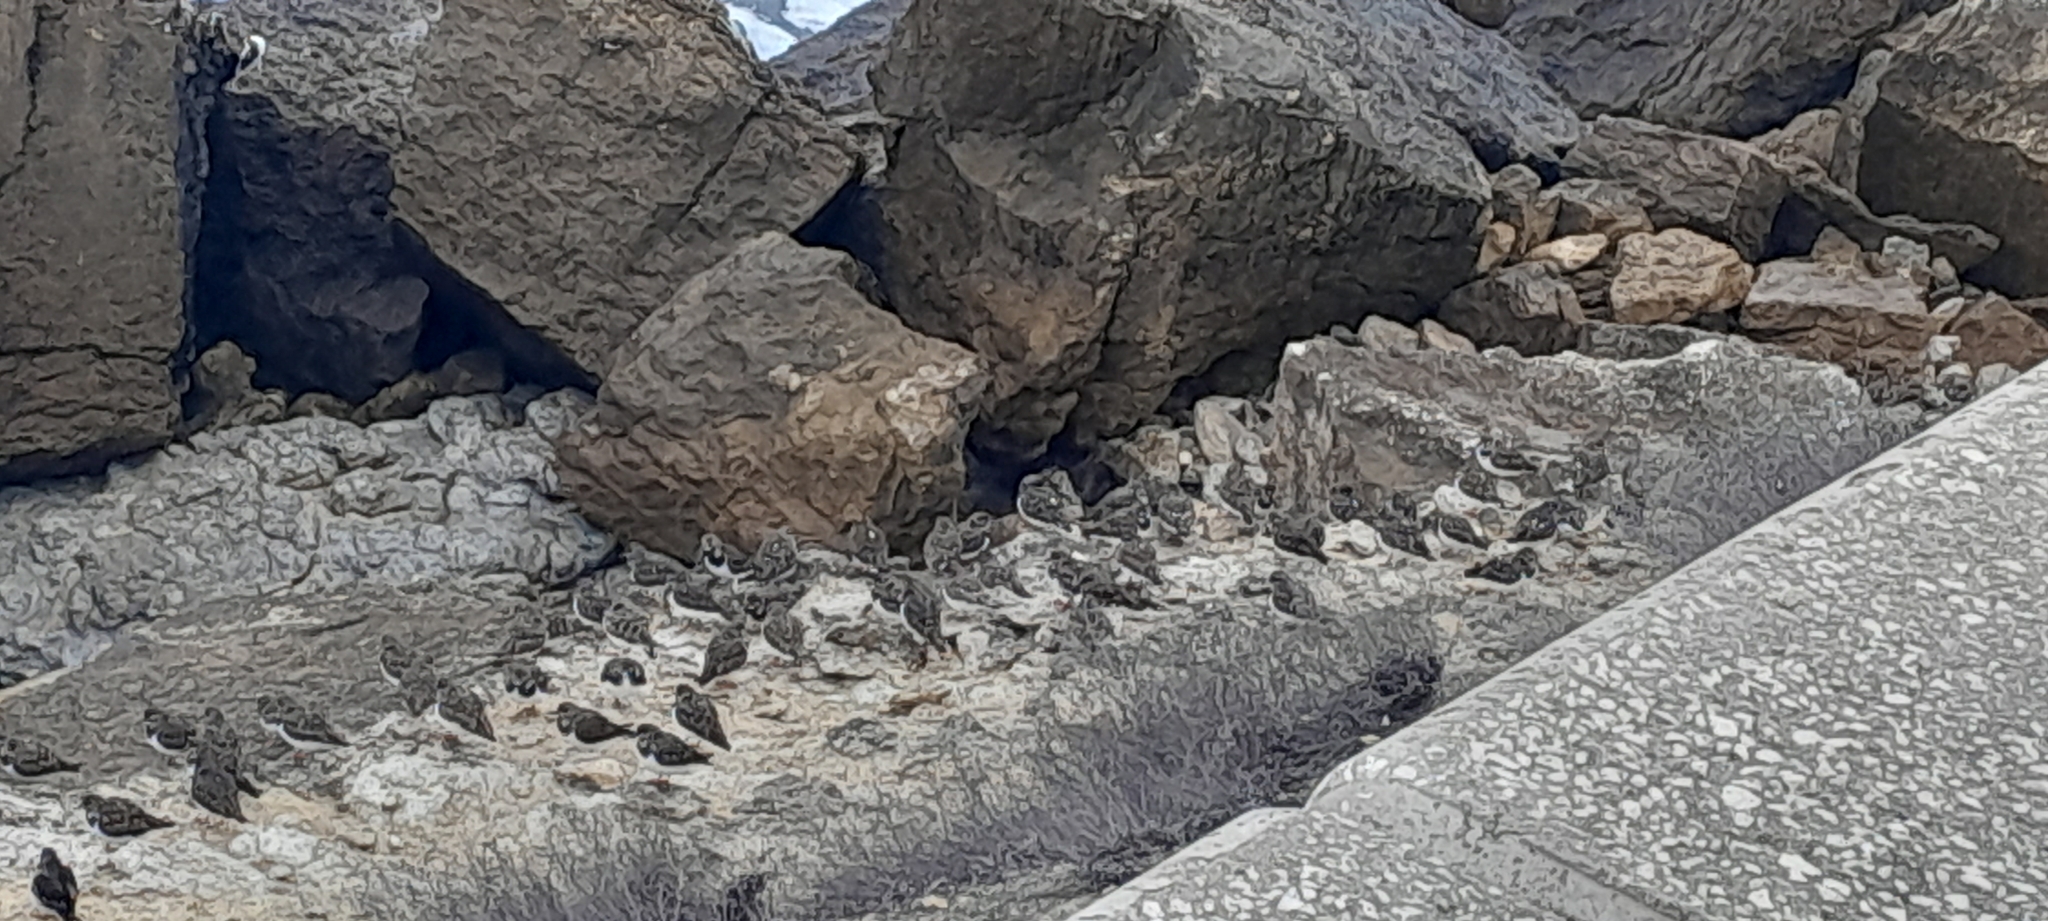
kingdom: Animalia
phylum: Chordata
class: Aves
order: Charadriiformes
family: Scolopacidae
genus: Arenaria
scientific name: Arenaria interpres
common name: Ruddy turnstone
